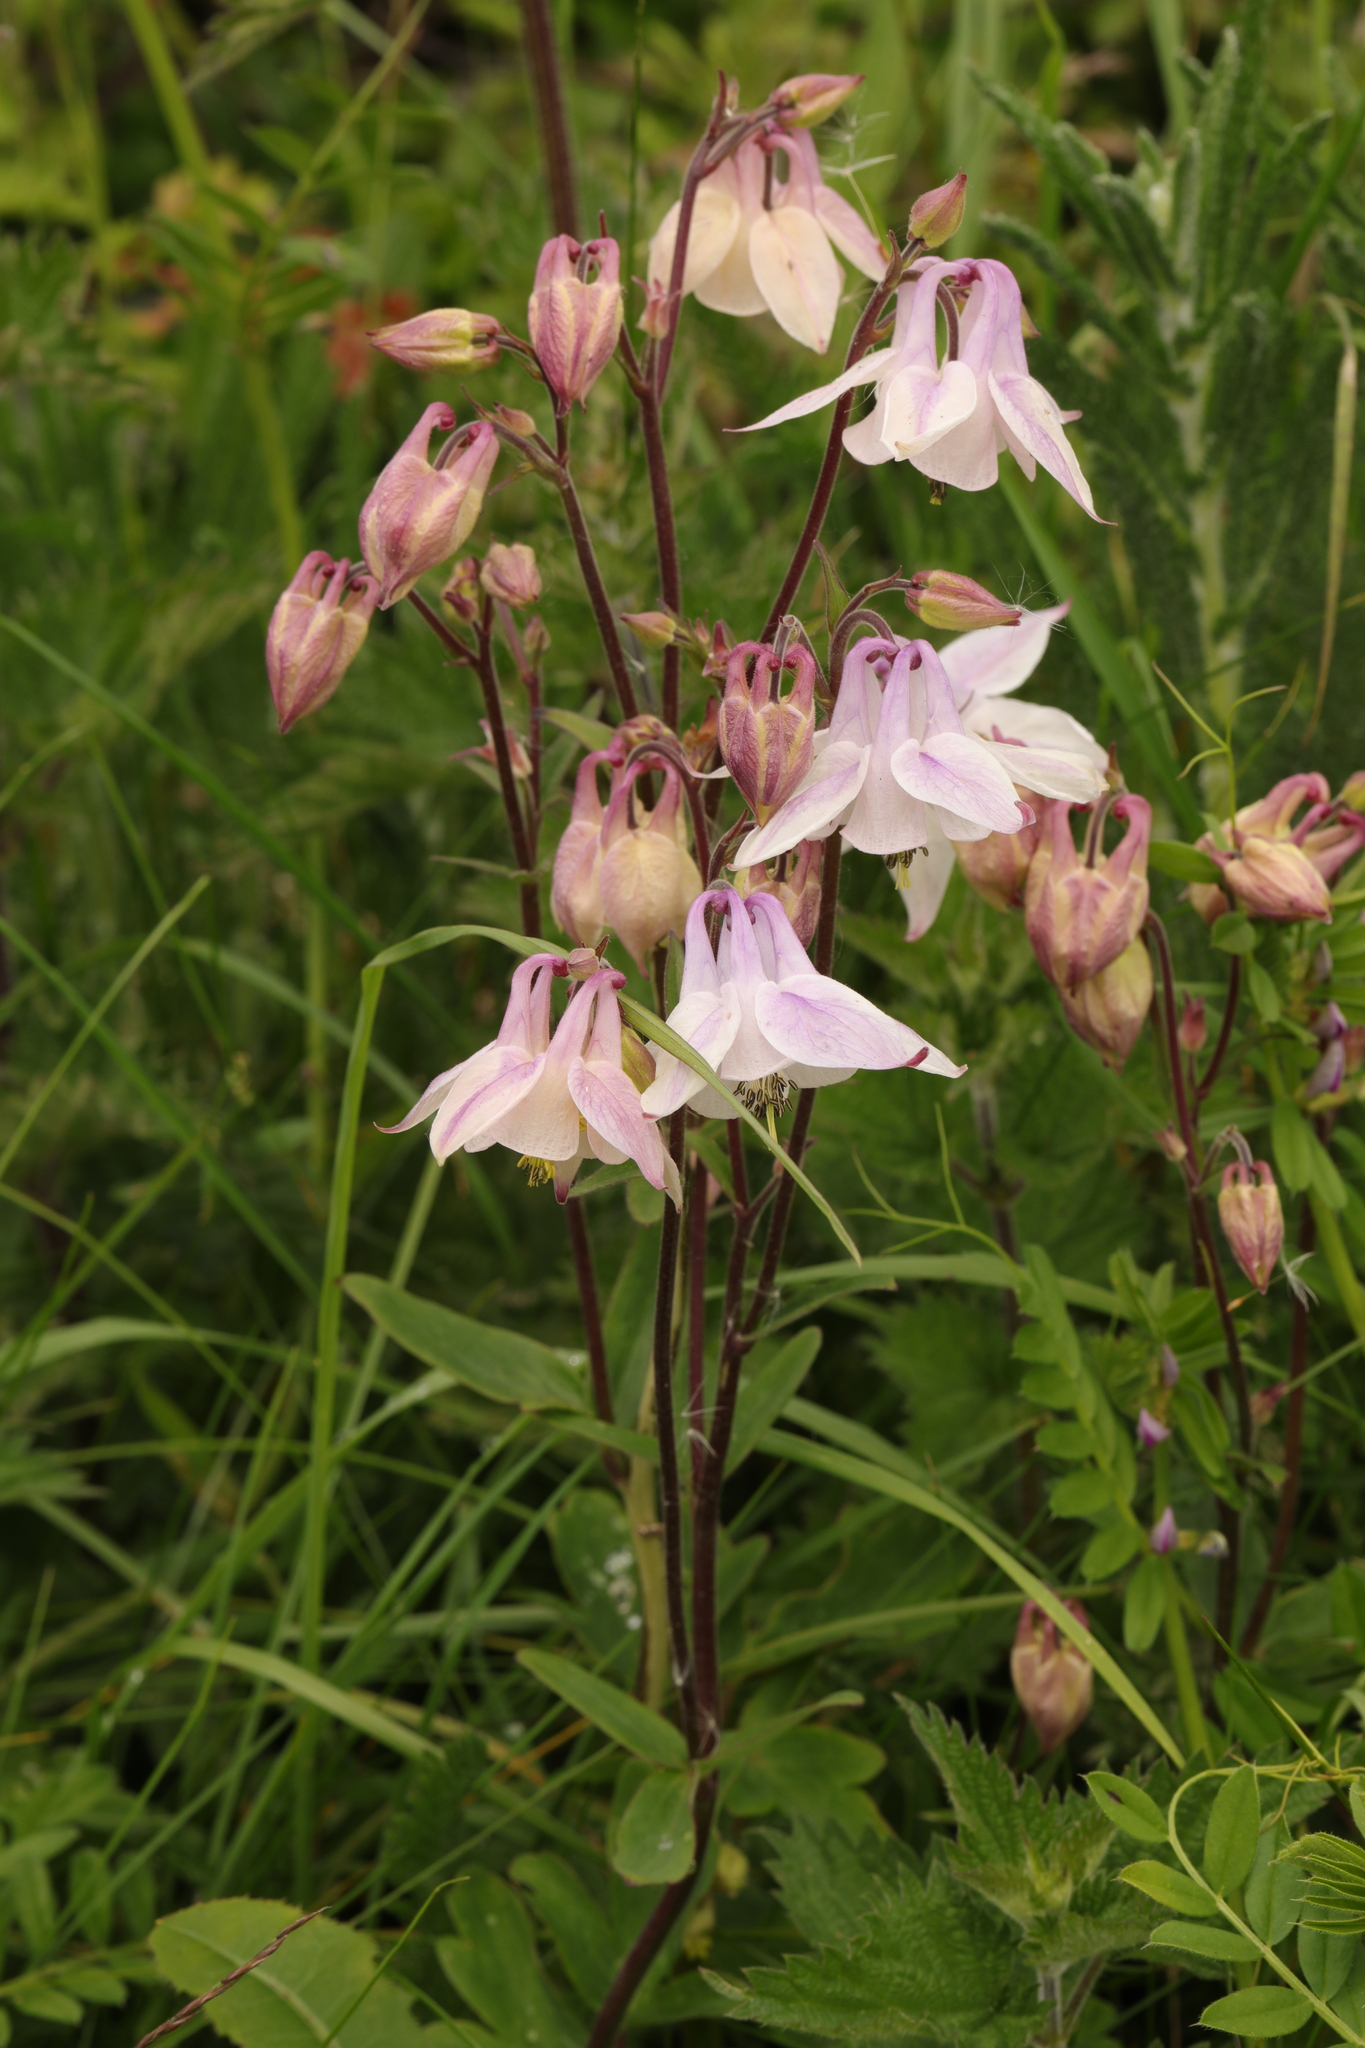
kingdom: Plantae
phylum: Tracheophyta
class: Magnoliopsida
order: Ranunculales
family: Ranunculaceae
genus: Aquilegia
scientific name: Aquilegia vulgaris
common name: Columbine
